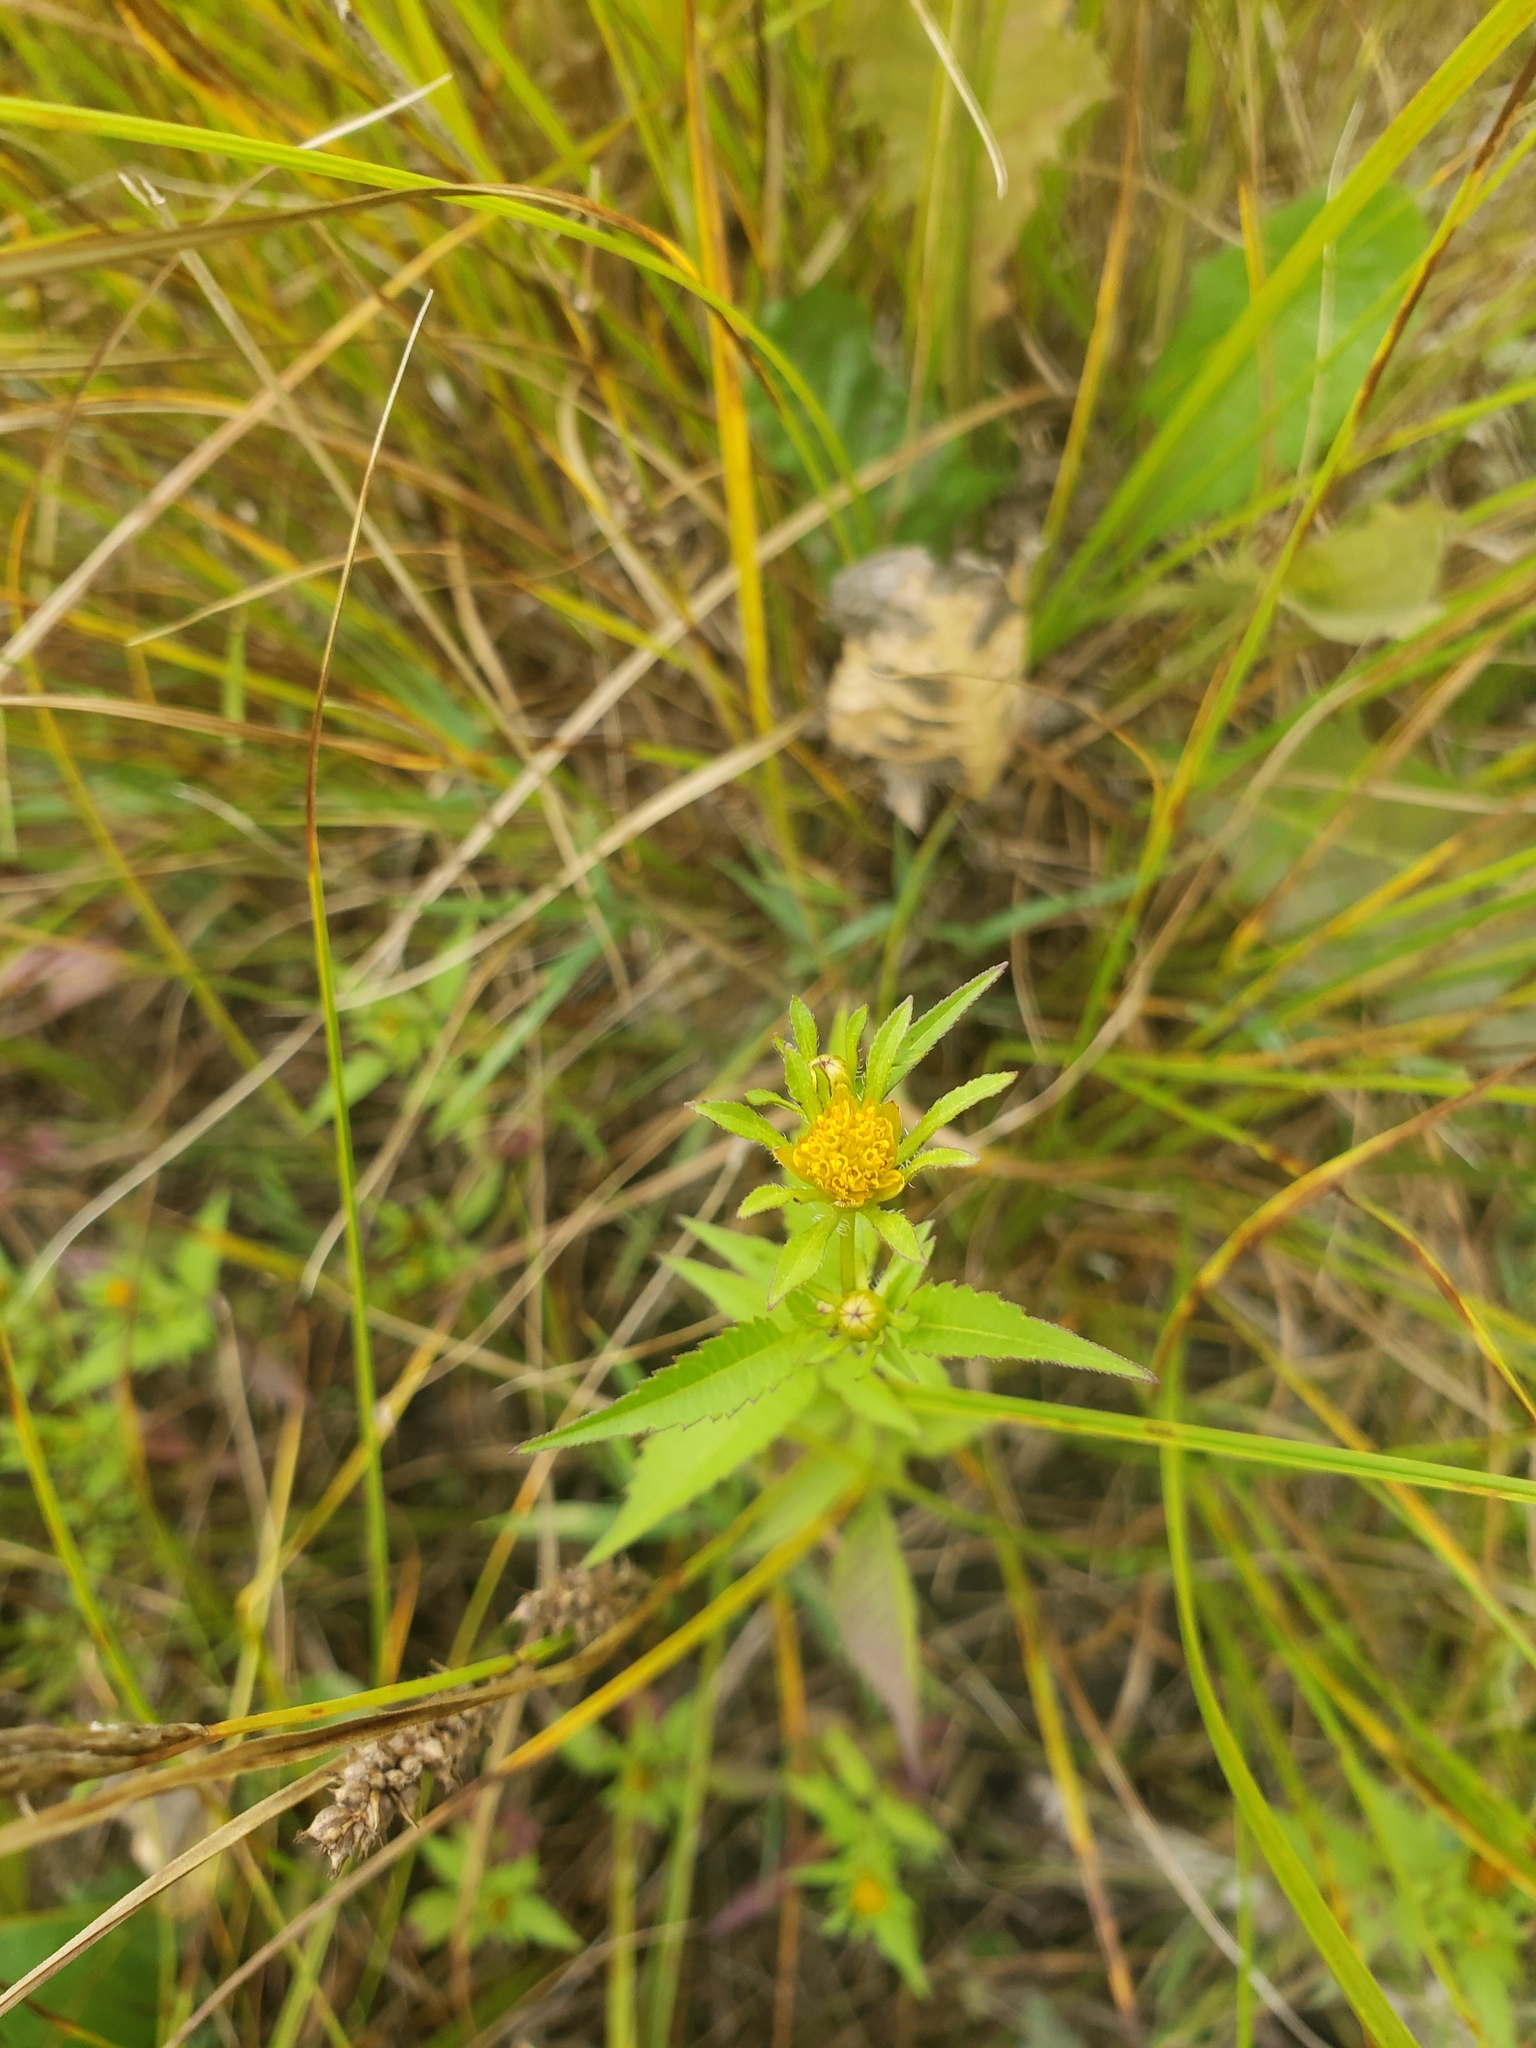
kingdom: Plantae
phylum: Tracheophyta
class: Magnoliopsida
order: Asterales
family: Asteraceae
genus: Bidens
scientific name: Bidens vulgata
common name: Tall beggarticks
